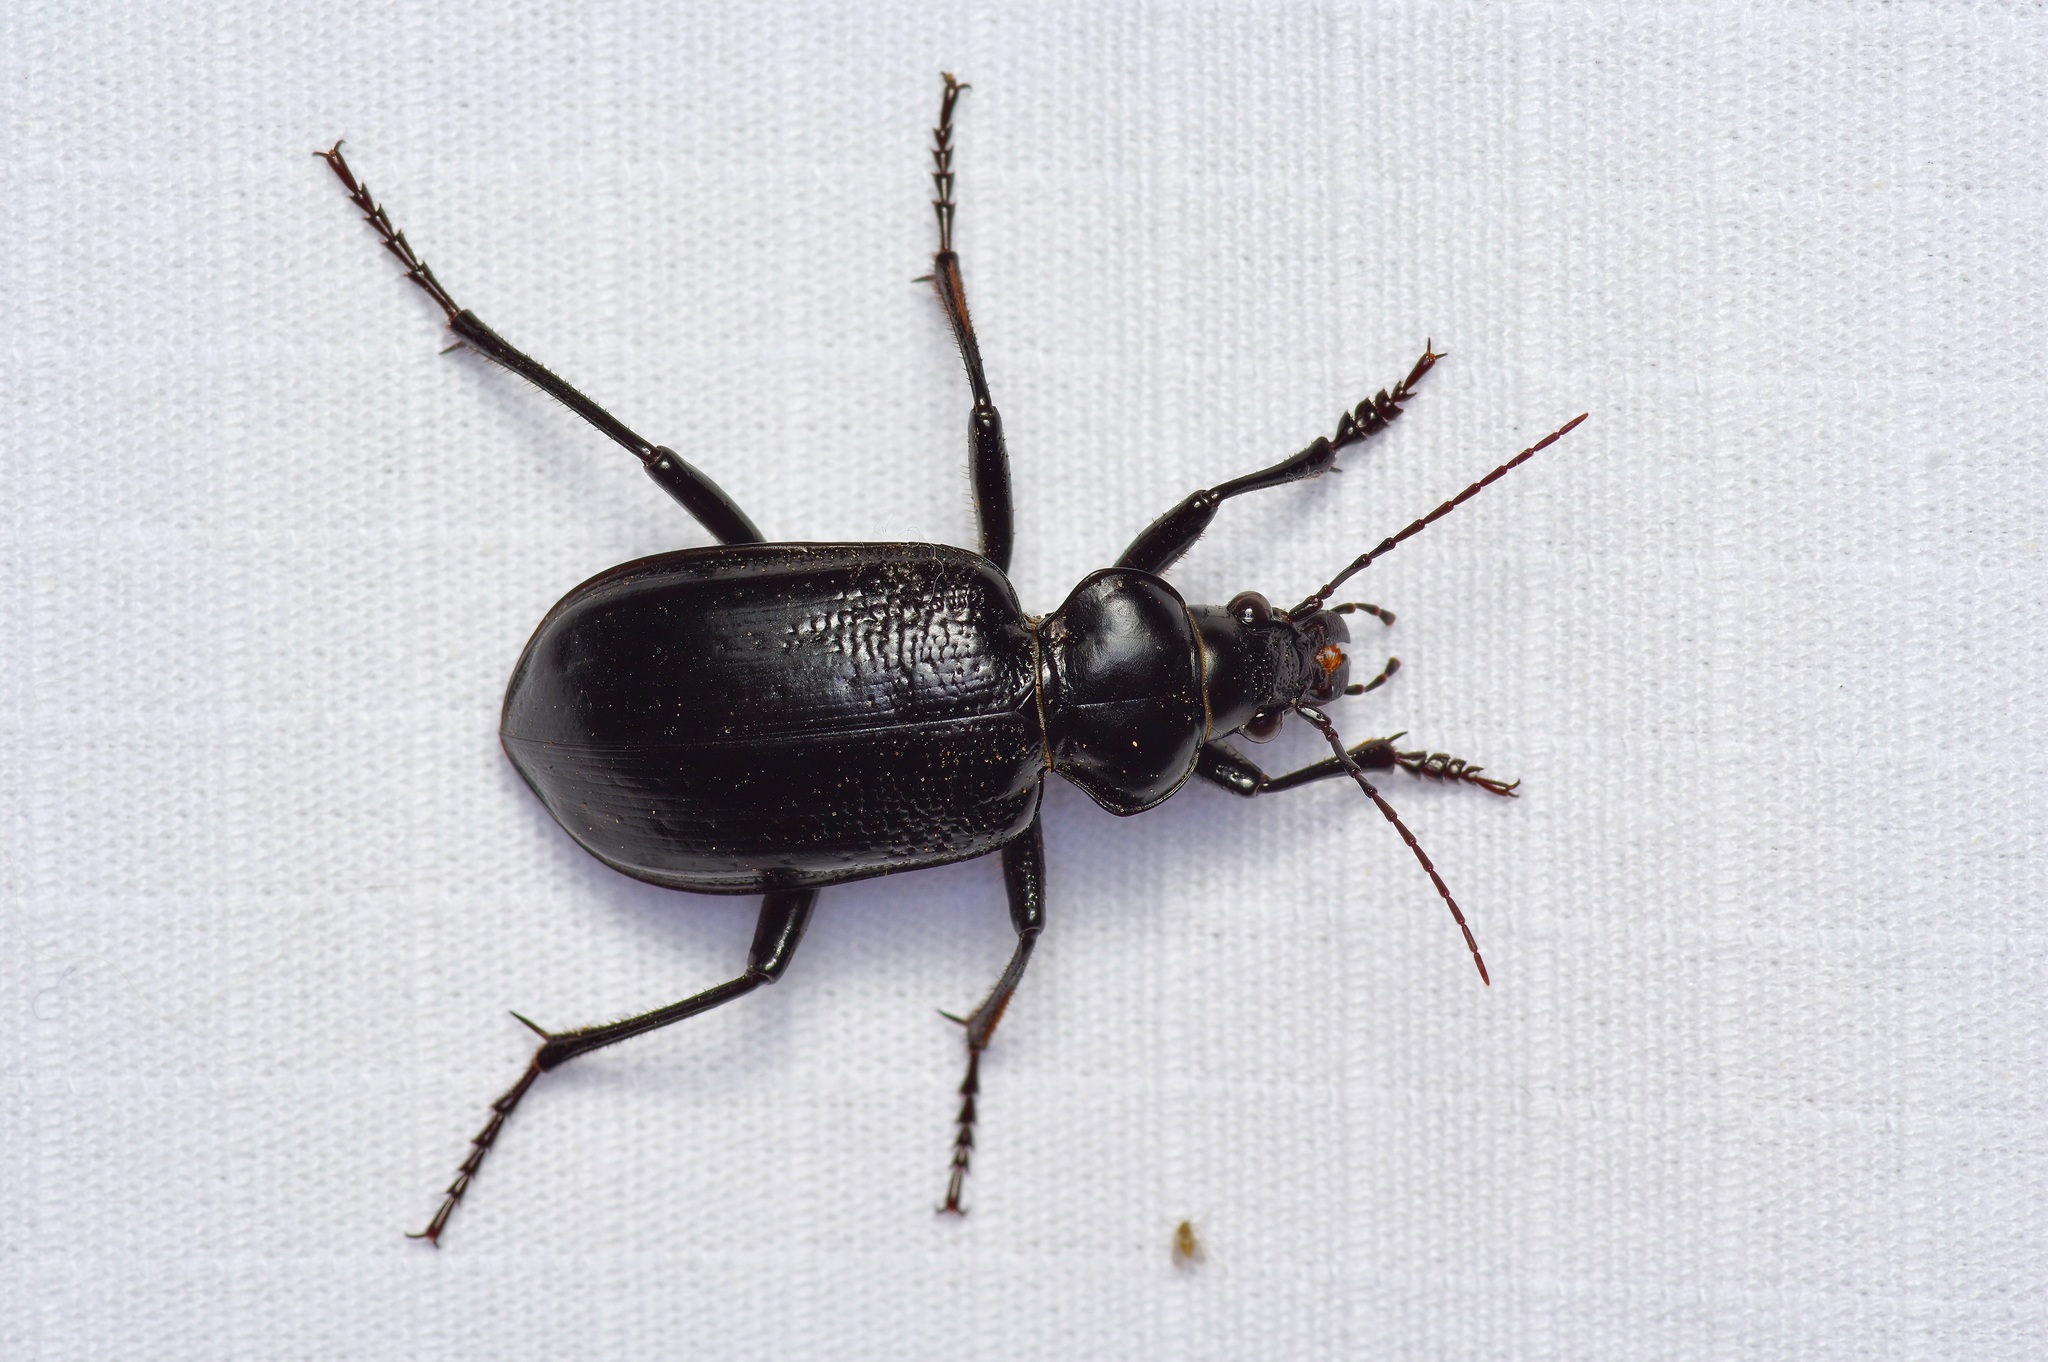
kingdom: Animalia
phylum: Arthropoda
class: Insecta
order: Coleoptera
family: Carabidae
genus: Calosoma
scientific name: Calosoma marginale
